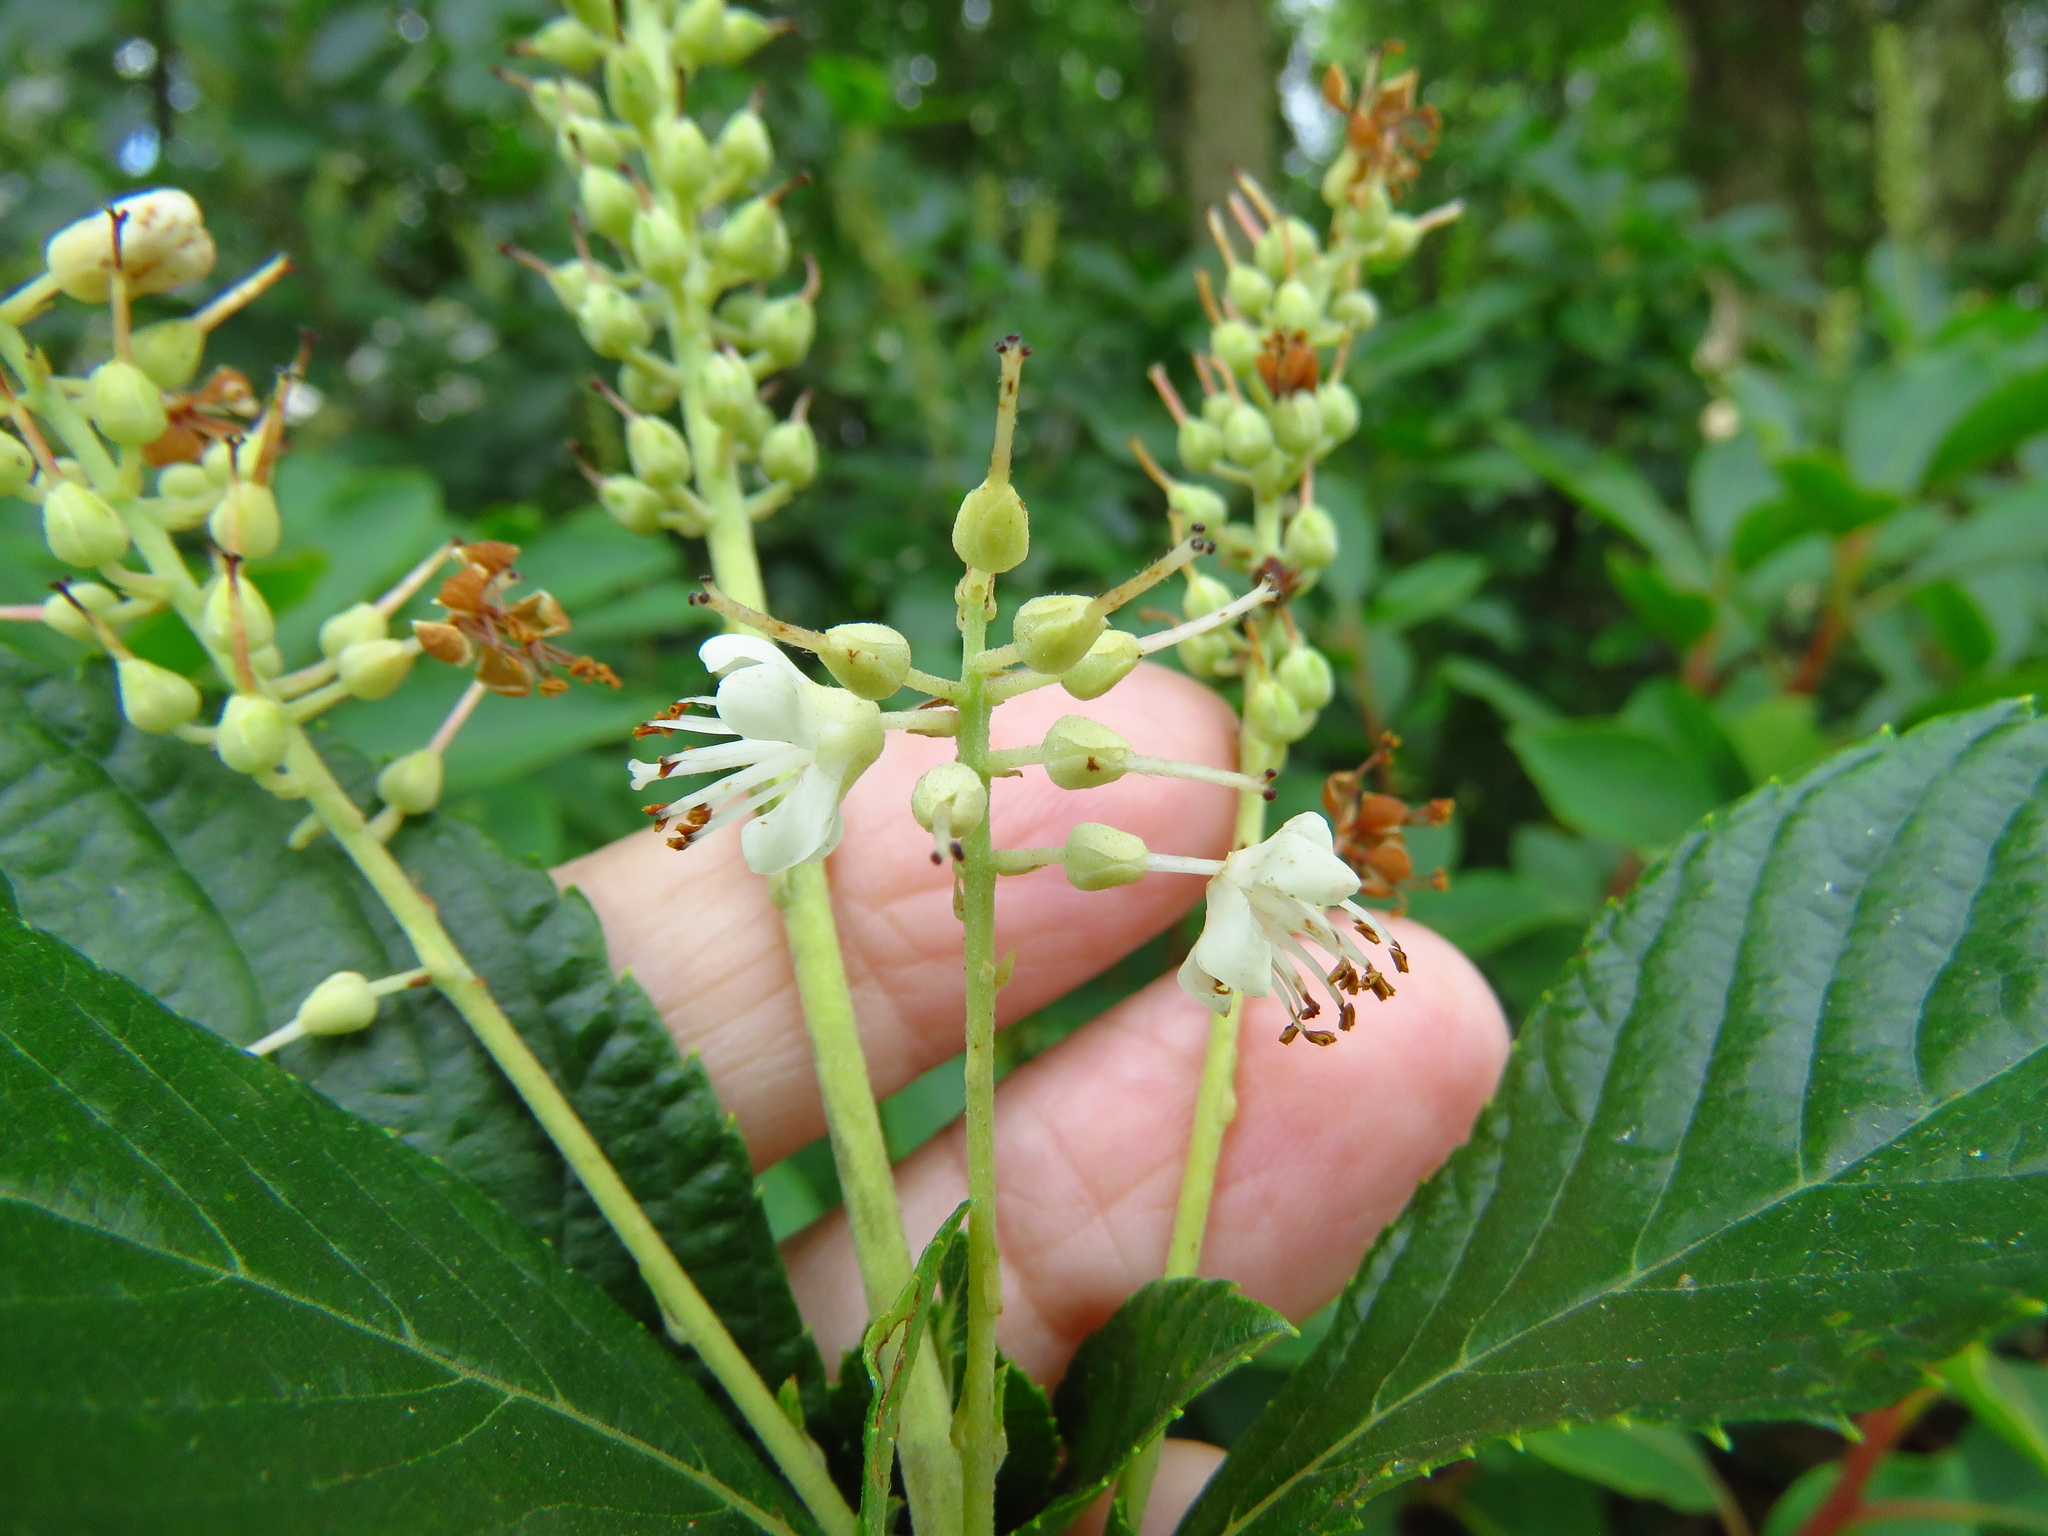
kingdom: Plantae
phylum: Tracheophyta
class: Magnoliopsida
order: Ericales
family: Clethraceae
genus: Clethra
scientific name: Clethra alnifolia
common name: Sweet pepperbush
